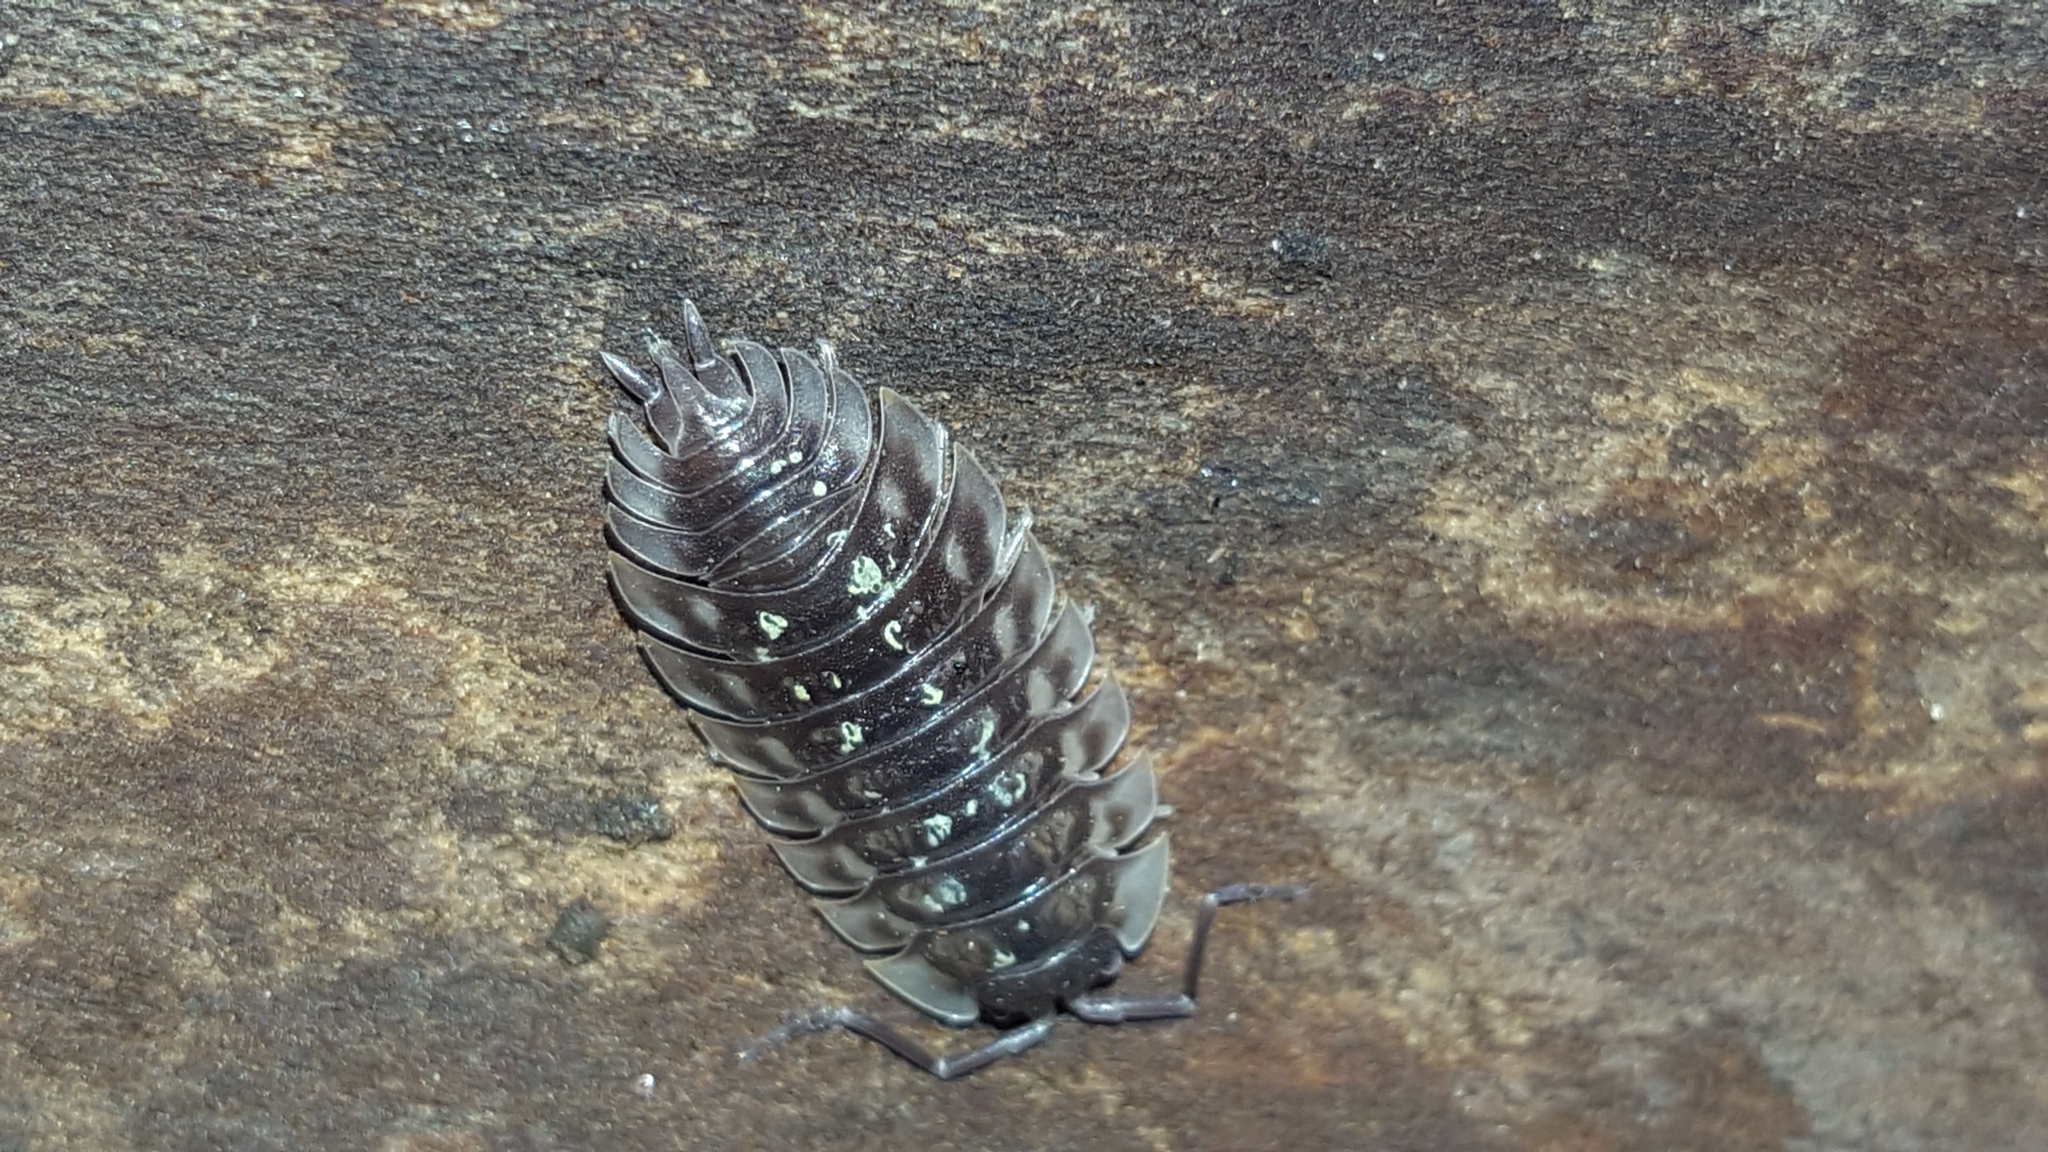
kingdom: Animalia
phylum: Arthropoda
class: Malacostraca
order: Isopoda
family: Oniscidae
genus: Oniscus
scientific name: Oniscus asellus
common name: Common shiny woodlouse
